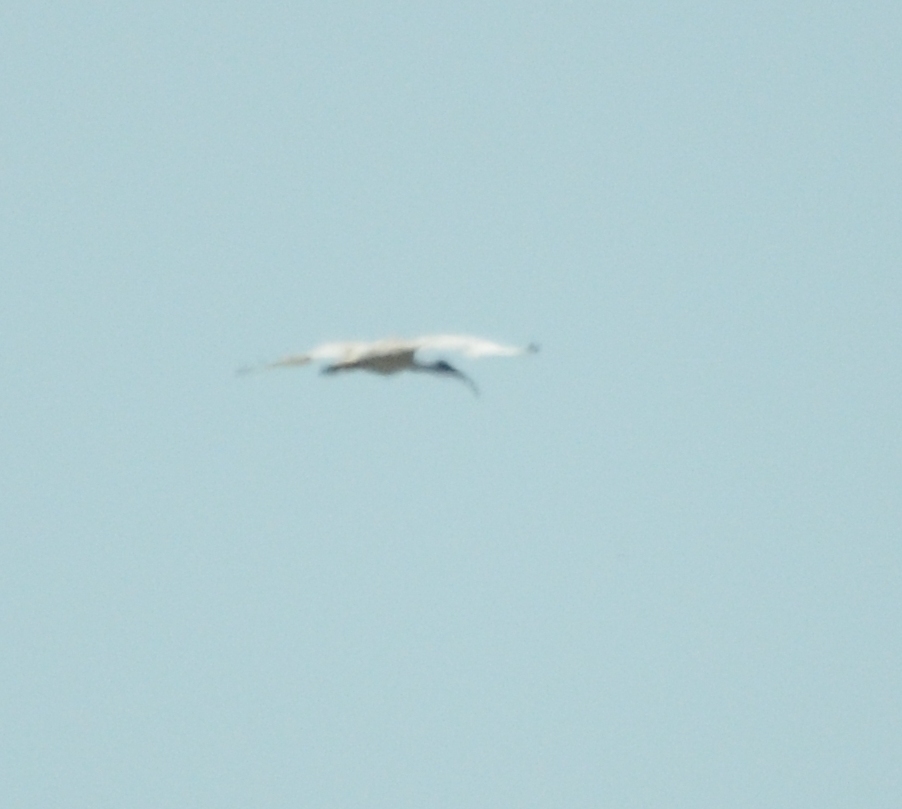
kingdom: Animalia
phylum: Chordata
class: Aves
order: Pelecaniformes
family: Threskiornithidae
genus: Threskiornis
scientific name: Threskiornis molucca
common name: Australian white ibis
